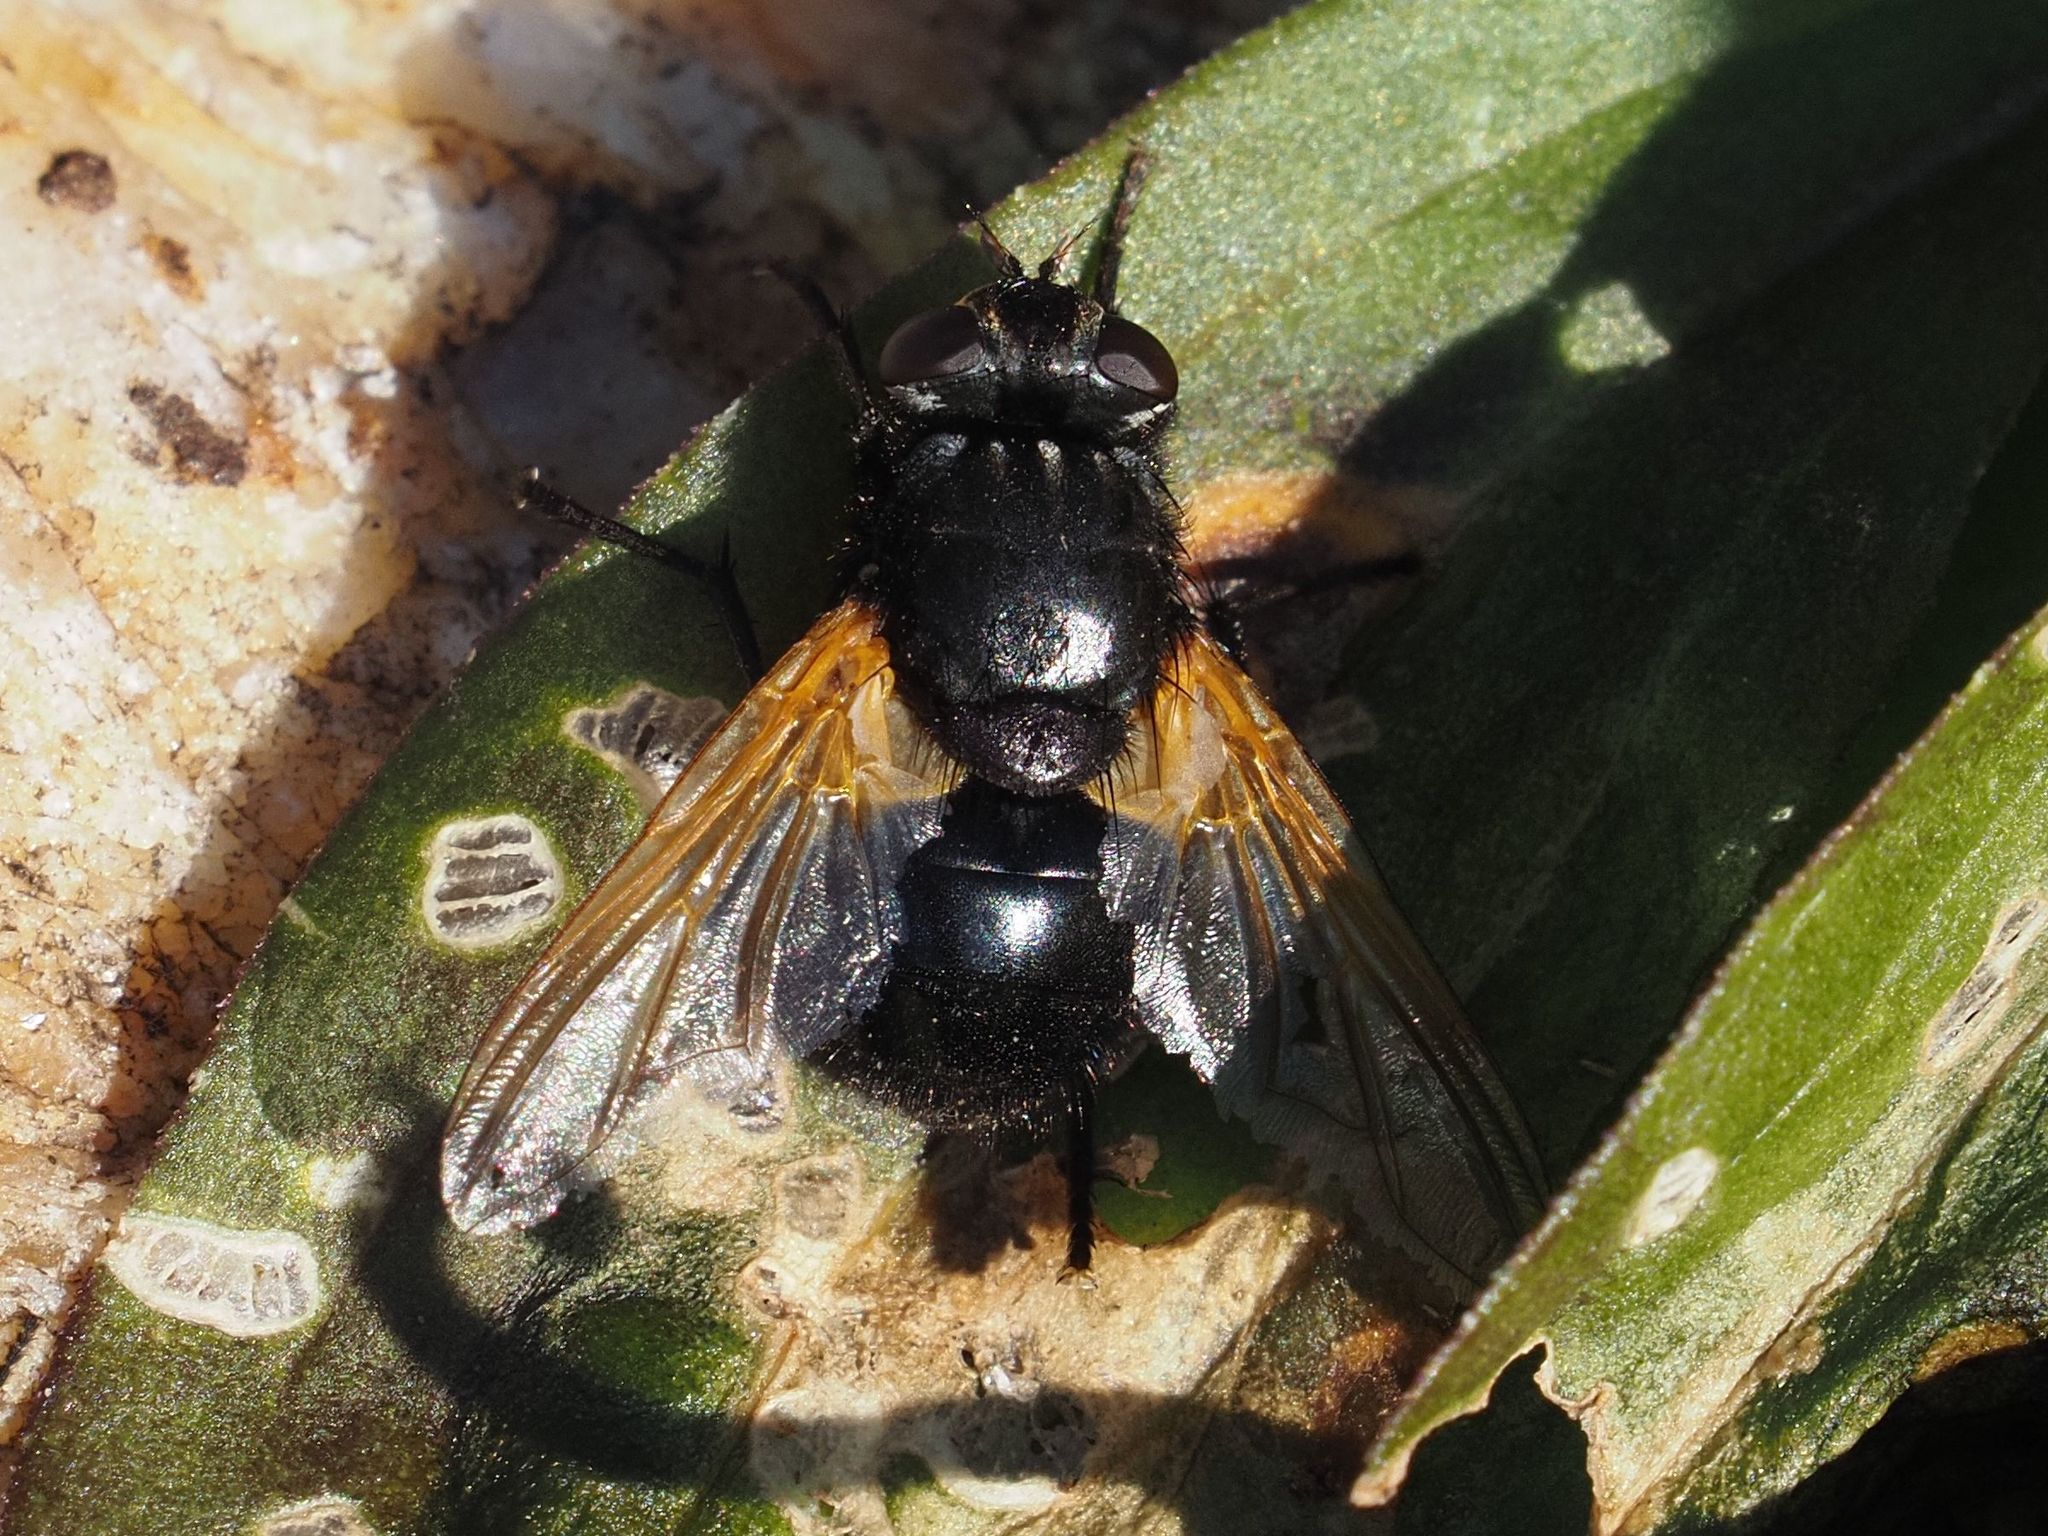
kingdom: Animalia
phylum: Arthropoda
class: Insecta
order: Diptera
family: Muscidae
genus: Mesembrina
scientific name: Mesembrina meridiana
